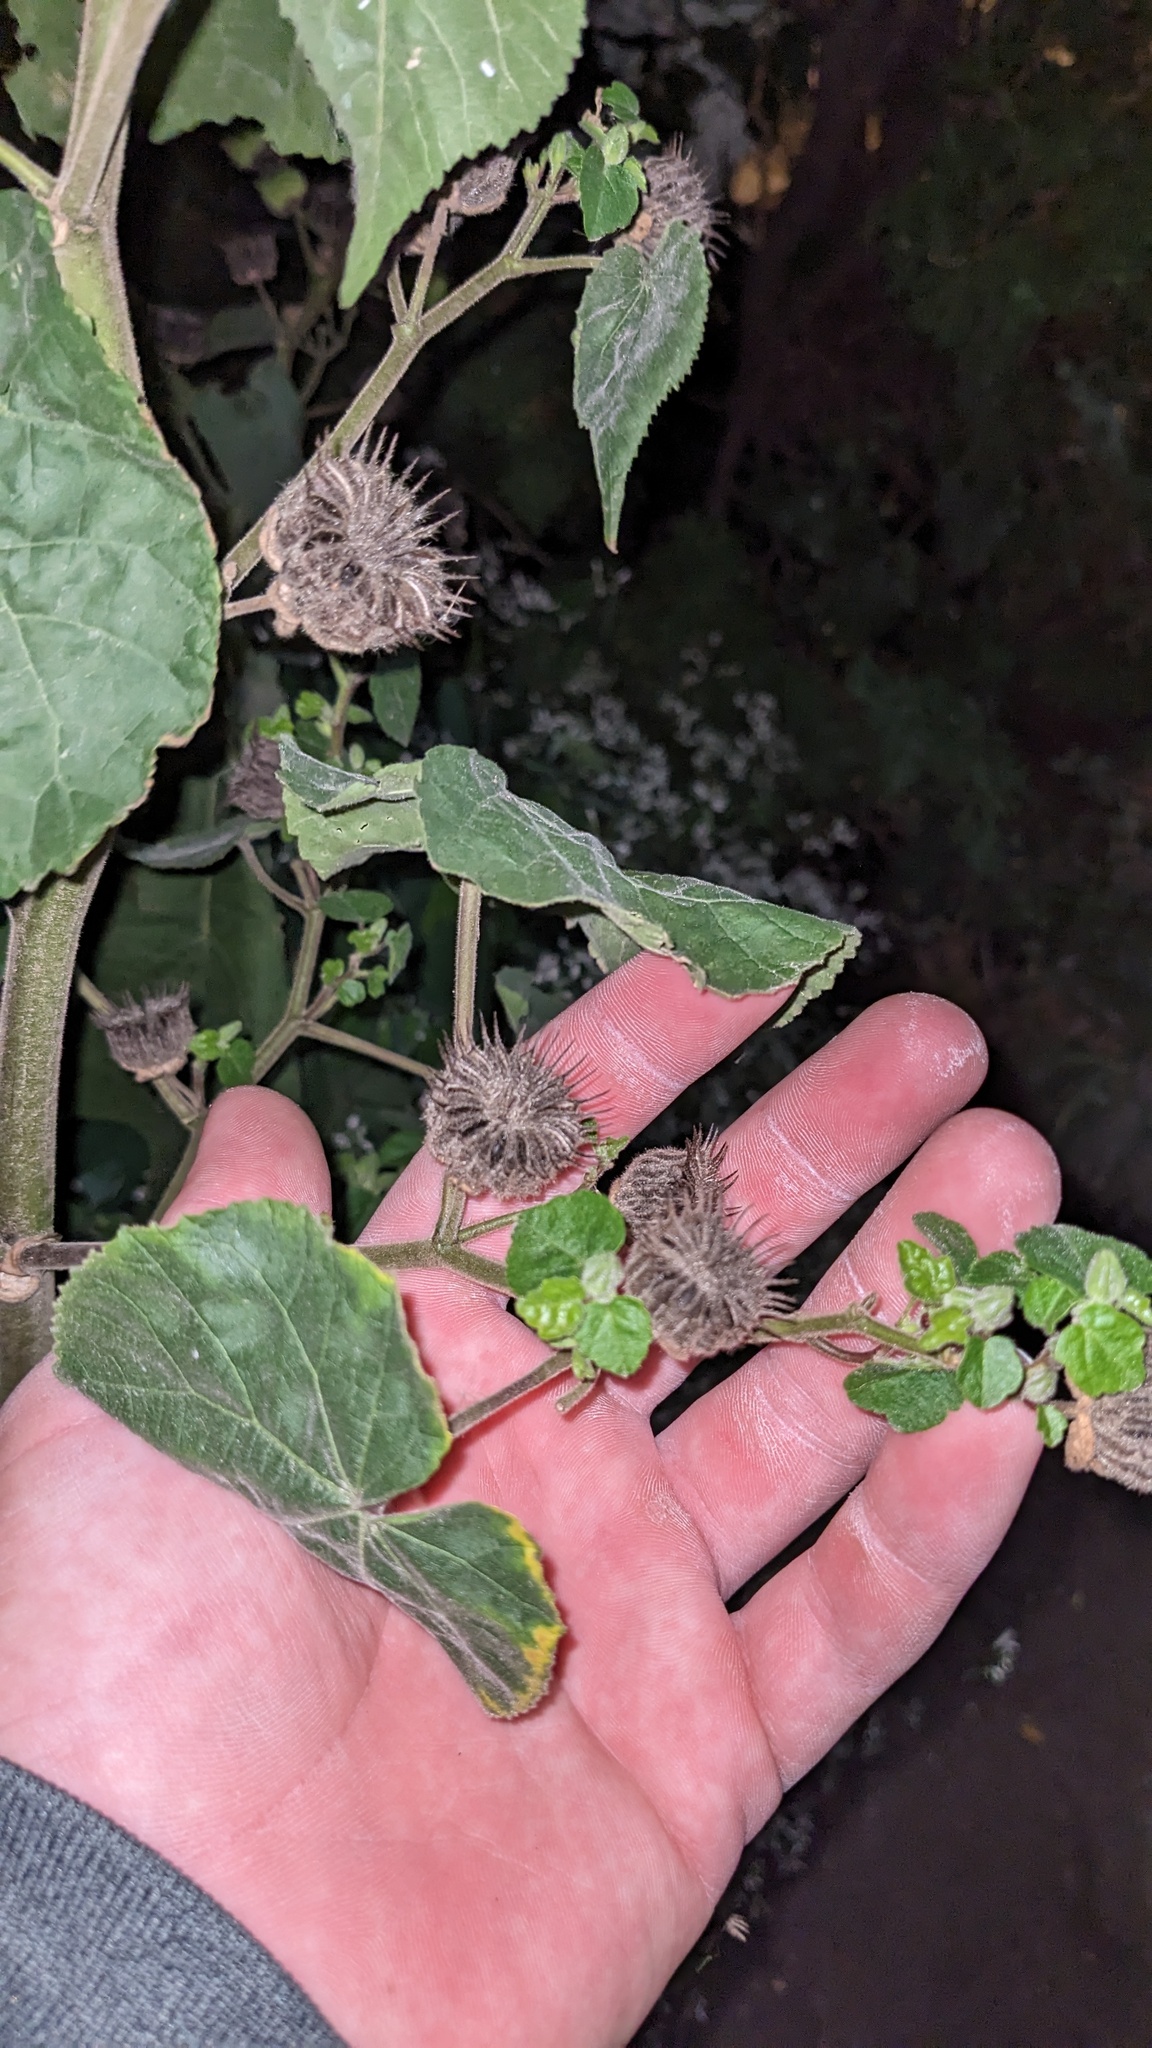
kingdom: Plantae
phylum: Tracheophyta
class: Magnoliopsida
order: Malvales
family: Malvaceae
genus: Abutilon
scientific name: Abutilon theophrasti
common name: Velvetleaf
